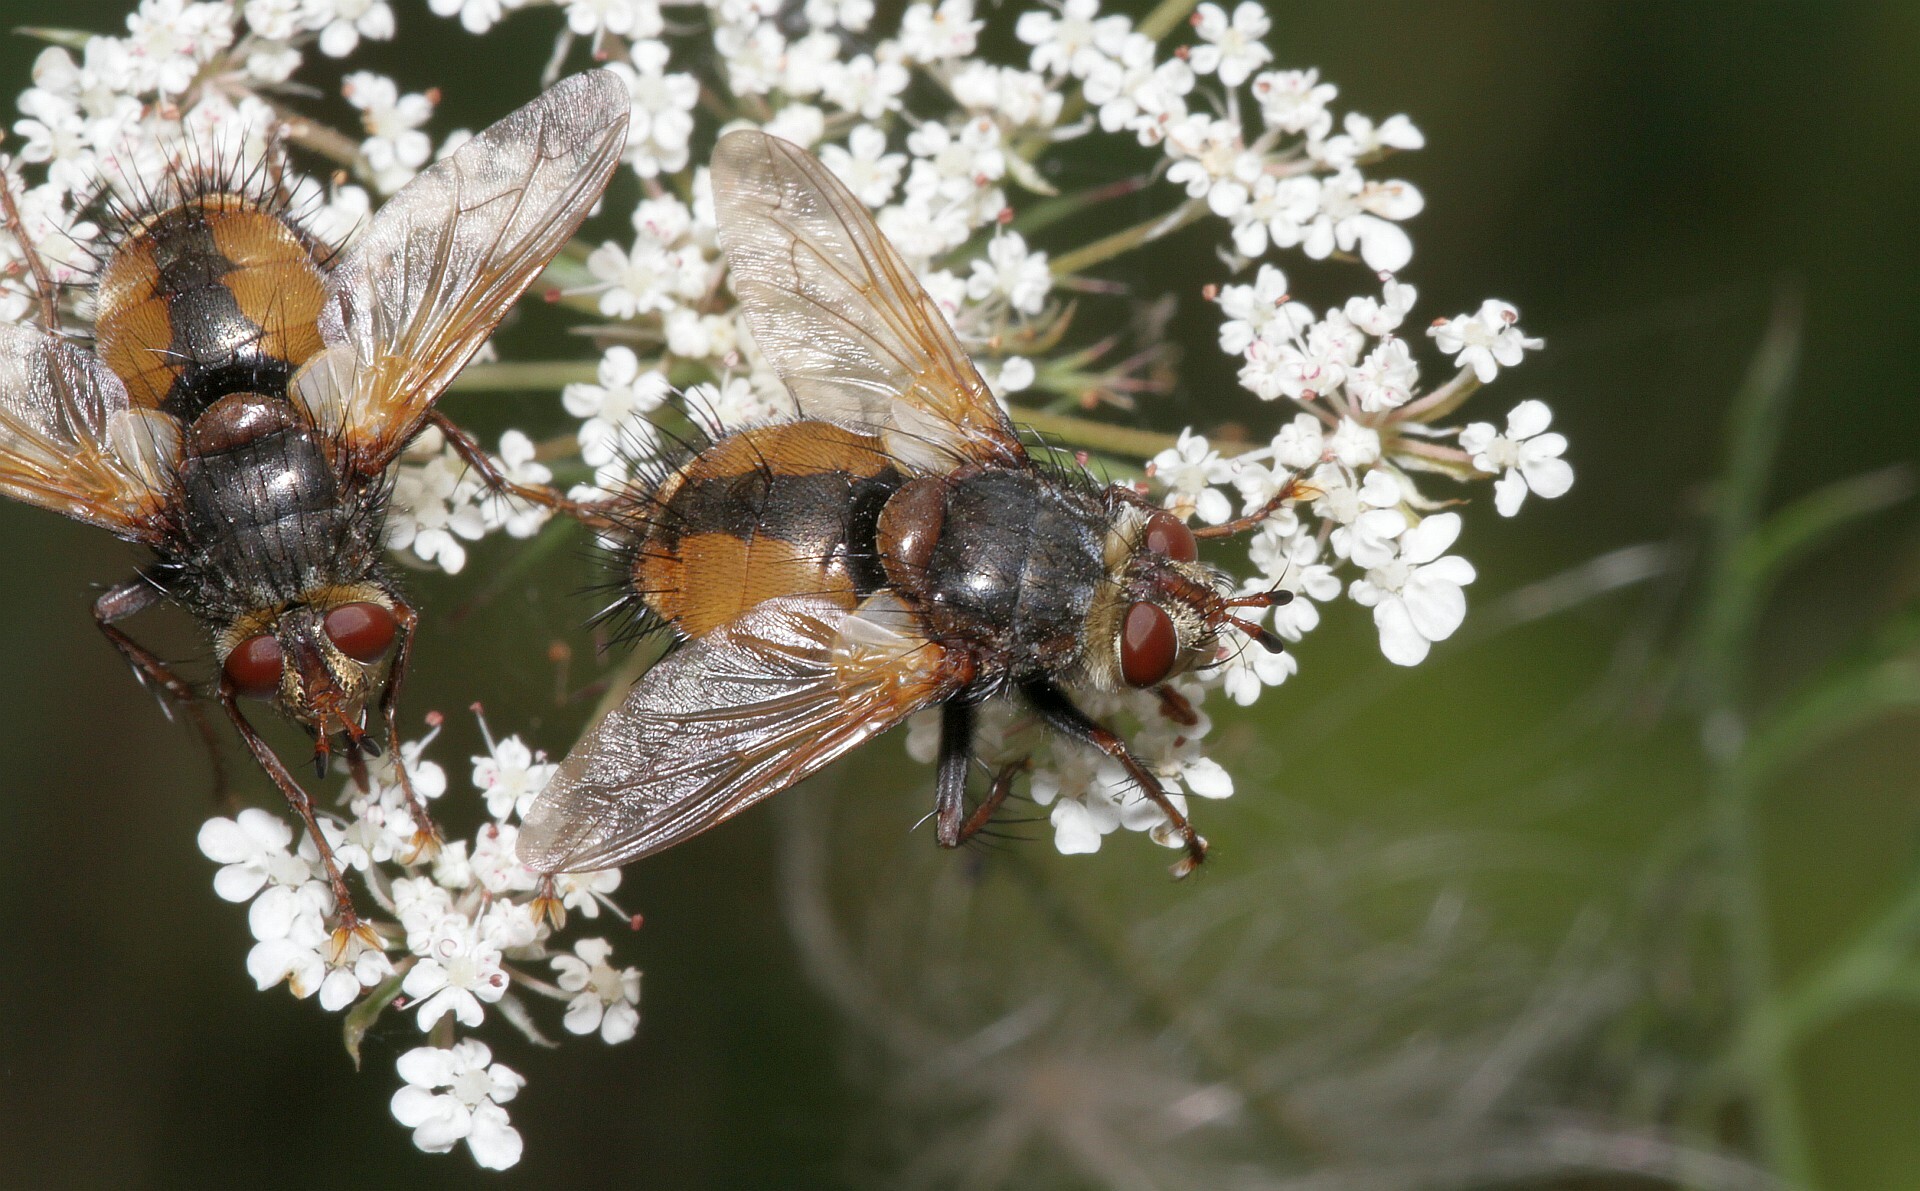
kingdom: Animalia
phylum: Arthropoda
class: Insecta
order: Diptera
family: Tachinidae
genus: Tachina
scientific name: Tachina fera
